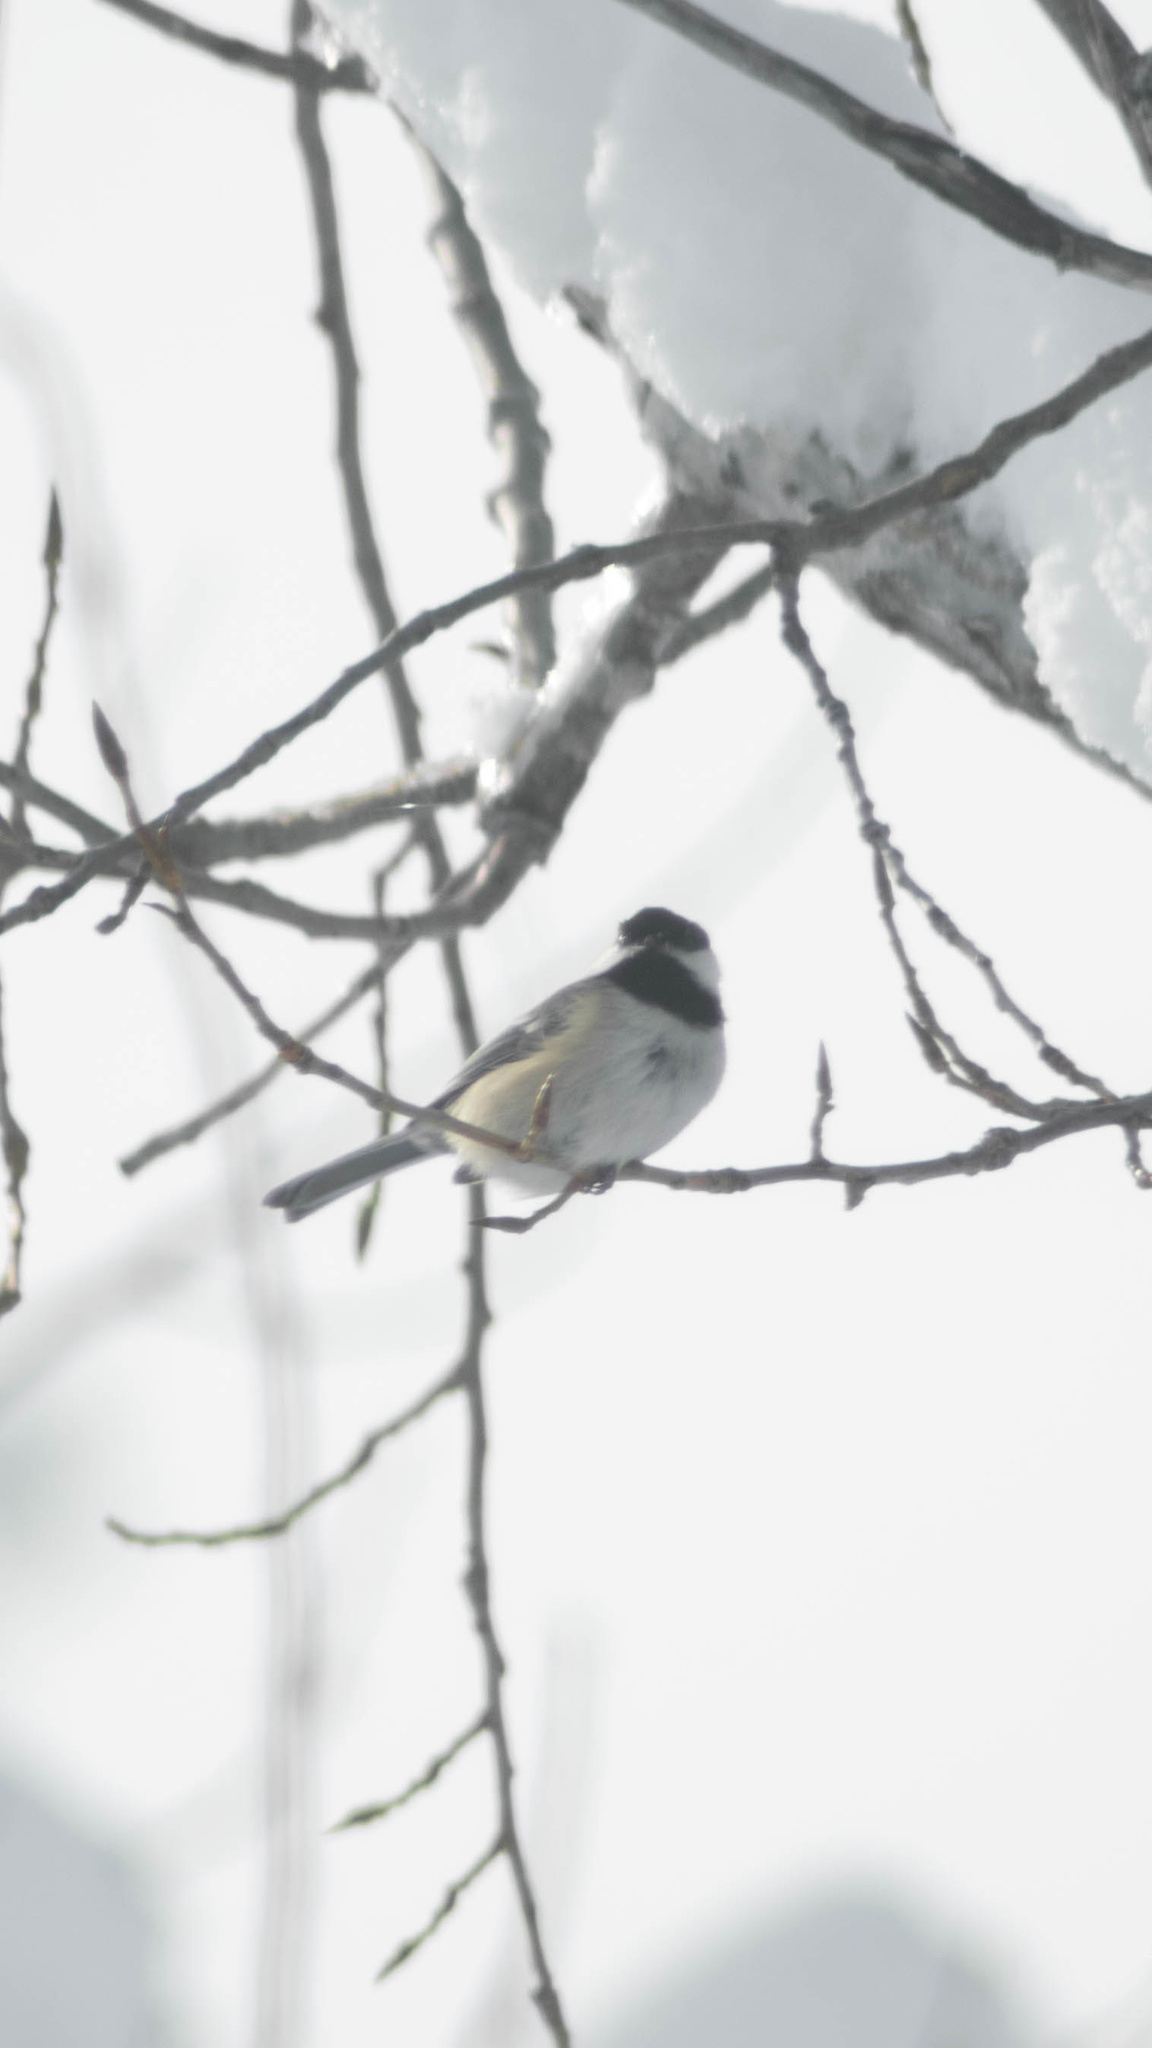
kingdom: Animalia
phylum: Chordata
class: Aves
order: Passeriformes
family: Paridae
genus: Poecile
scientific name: Poecile atricapillus
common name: Black-capped chickadee
